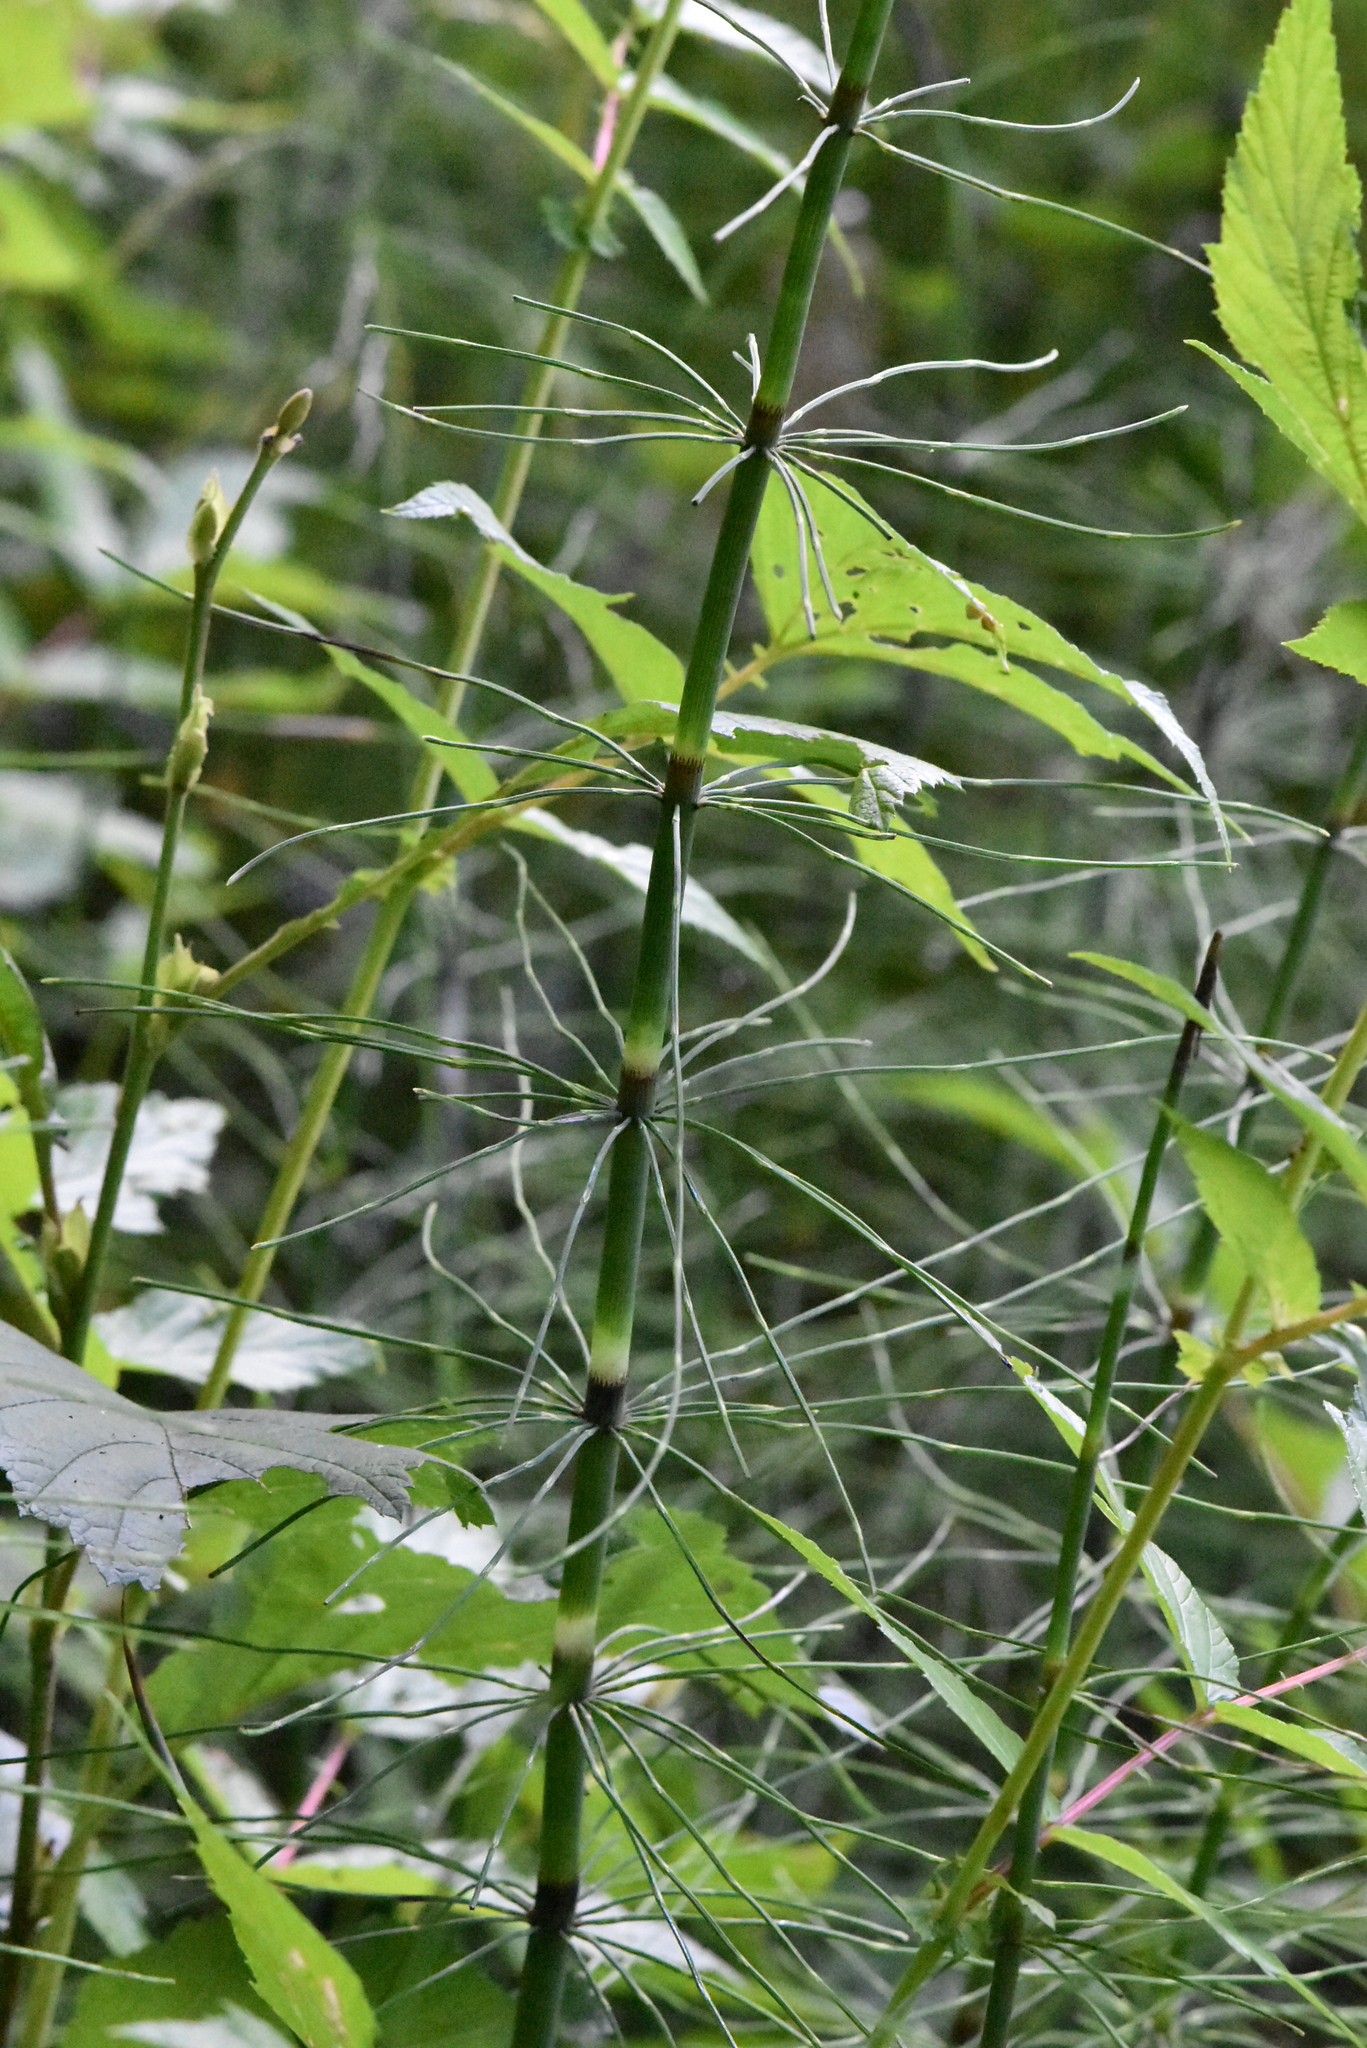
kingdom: Plantae
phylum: Tracheophyta
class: Polypodiopsida
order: Equisetales
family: Equisetaceae
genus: Equisetum
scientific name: Equisetum fluviatile
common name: Water horsetail
